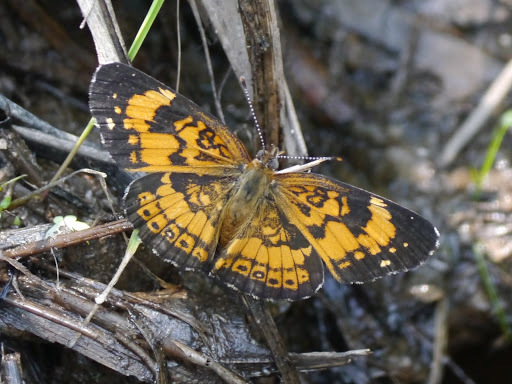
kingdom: Animalia
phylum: Arthropoda
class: Insecta
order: Lepidoptera
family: Nymphalidae
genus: Phyciodes
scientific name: Phyciodes tharos
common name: Pearl crescent
